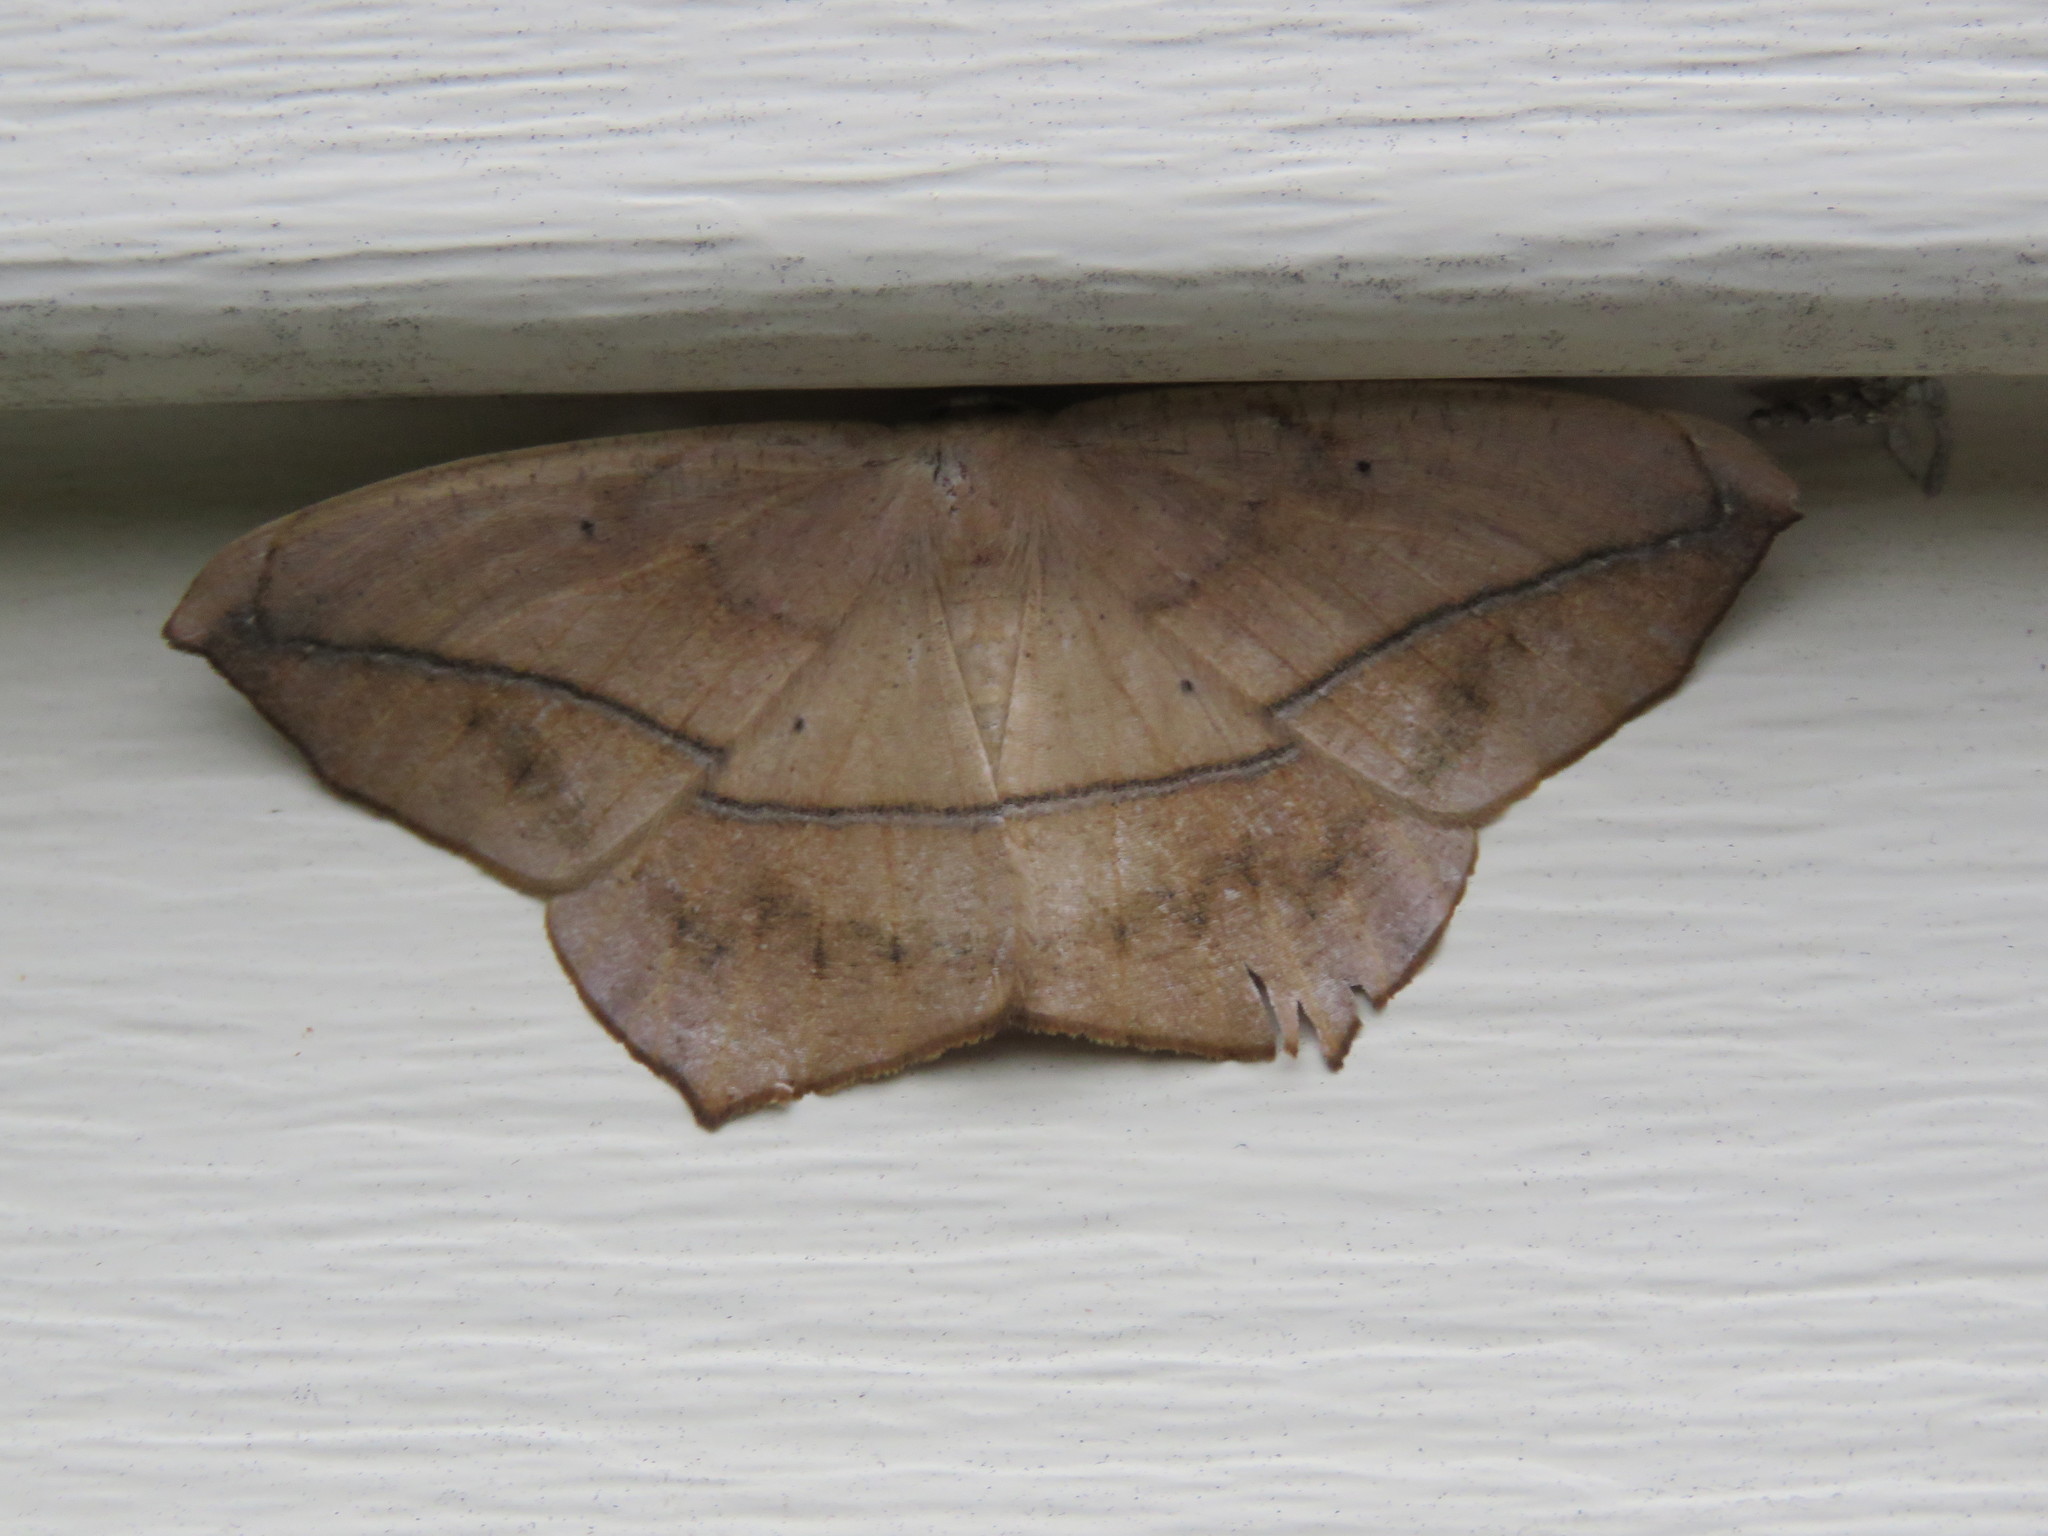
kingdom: Animalia
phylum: Arthropoda
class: Insecta
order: Lepidoptera
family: Geometridae
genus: Prochoerodes
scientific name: Prochoerodes lineola
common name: Large maple spanworm
